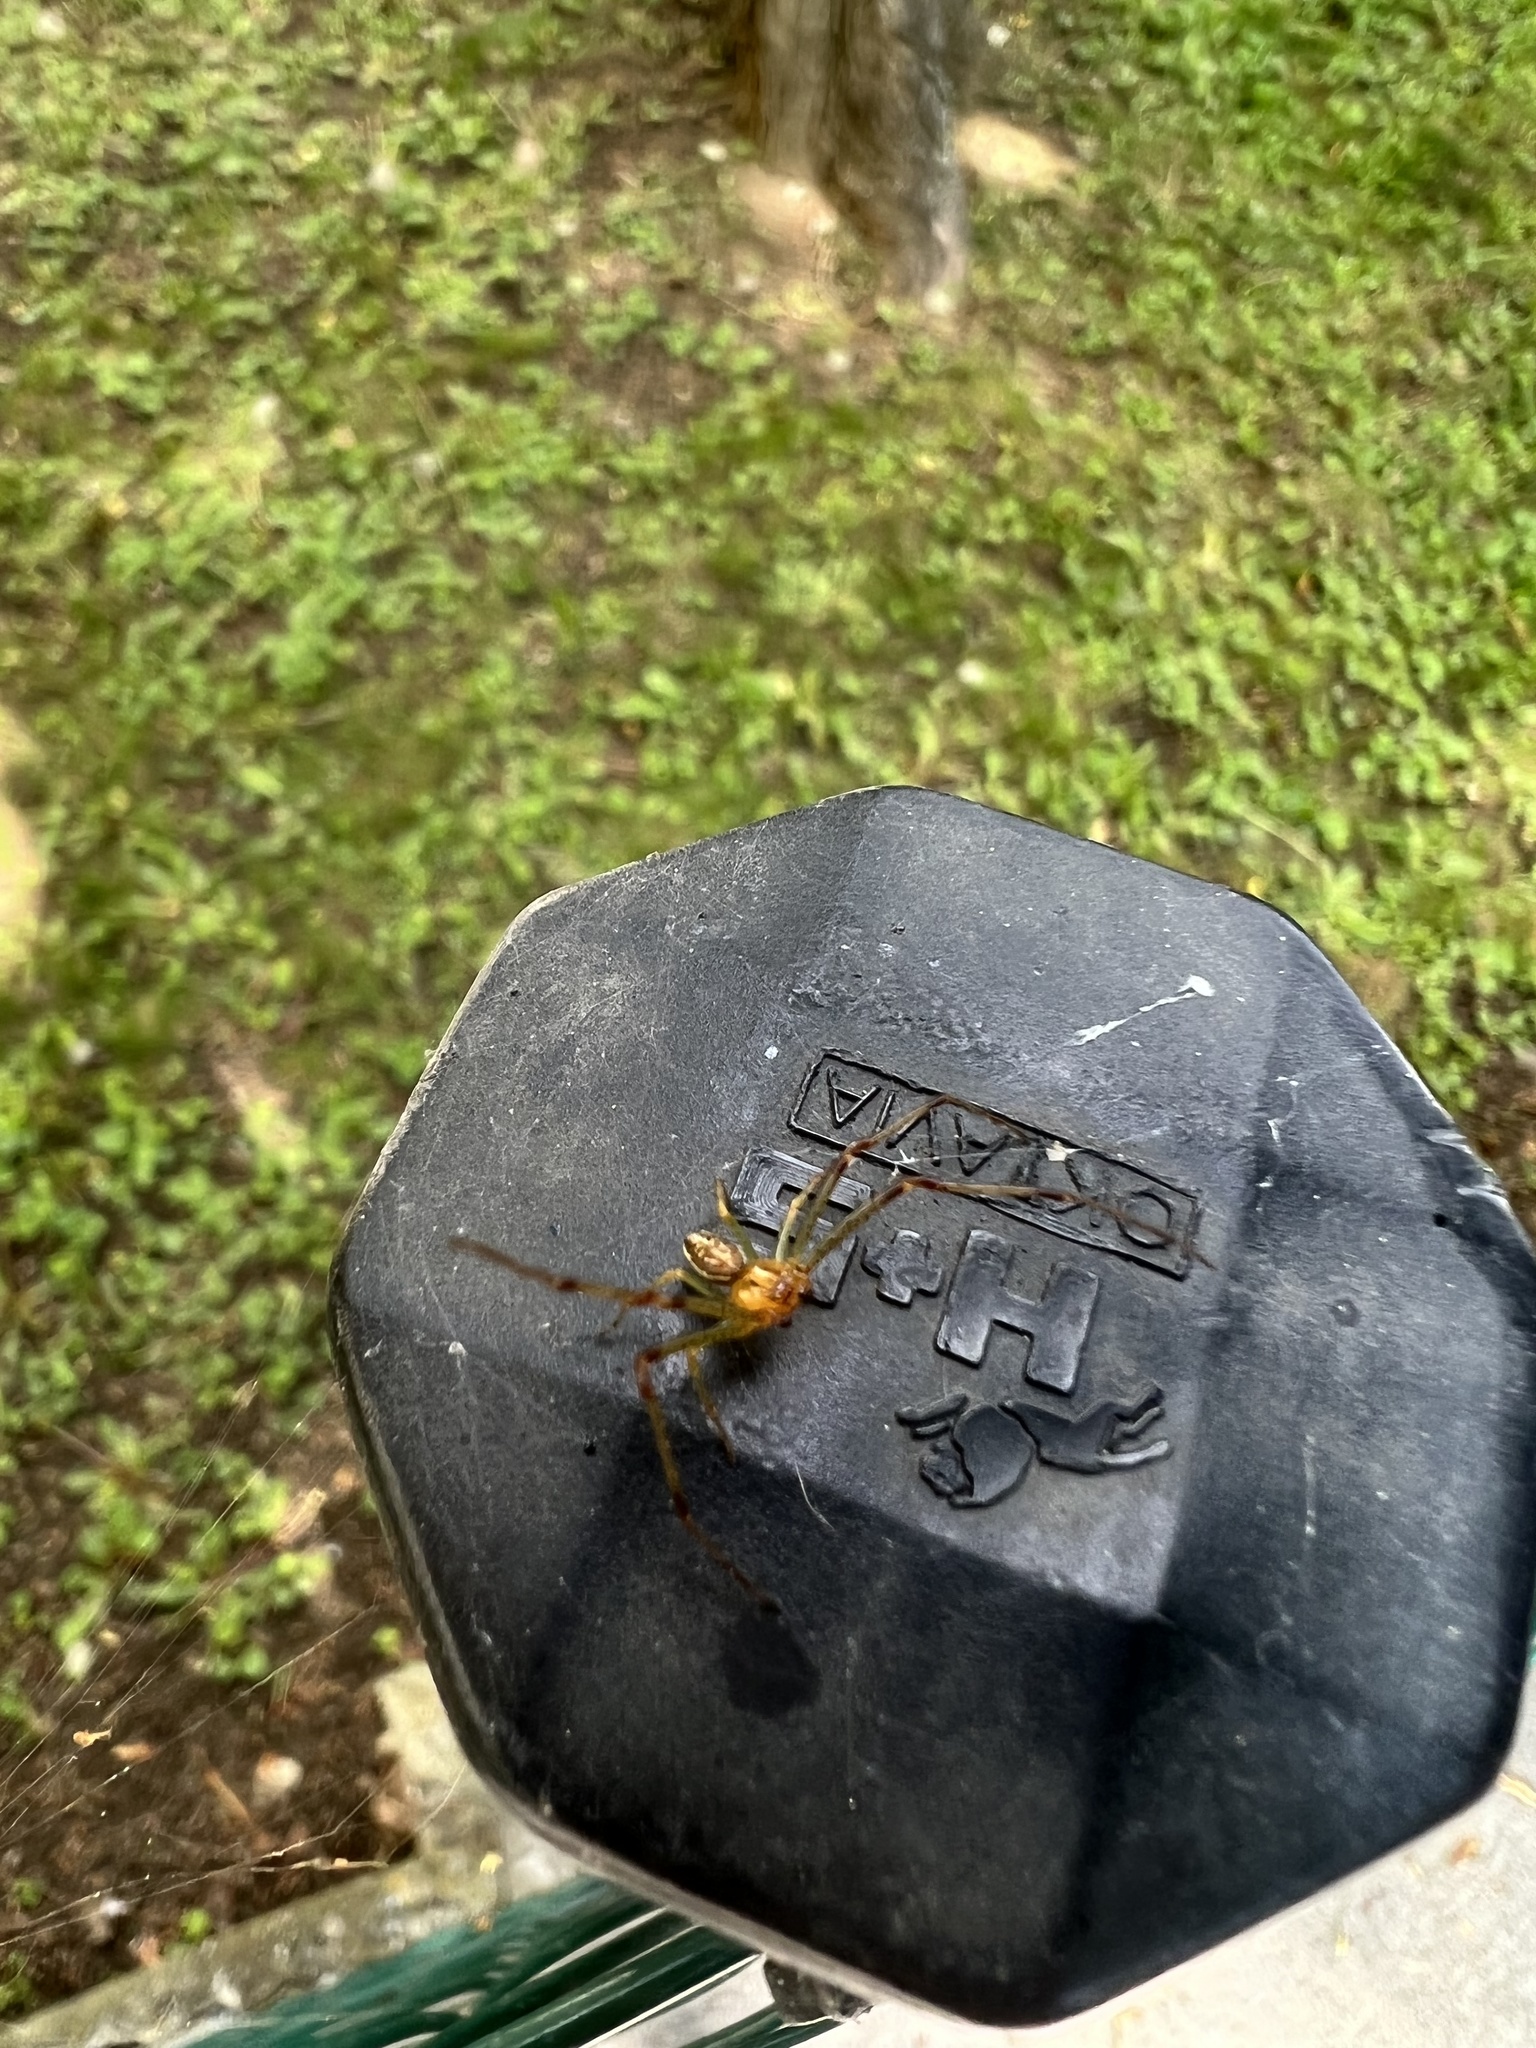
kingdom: Animalia
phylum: Arthropoda
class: Arachnida
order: Araneae
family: Thomisidae
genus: Diaea
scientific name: Diaea dorsata
